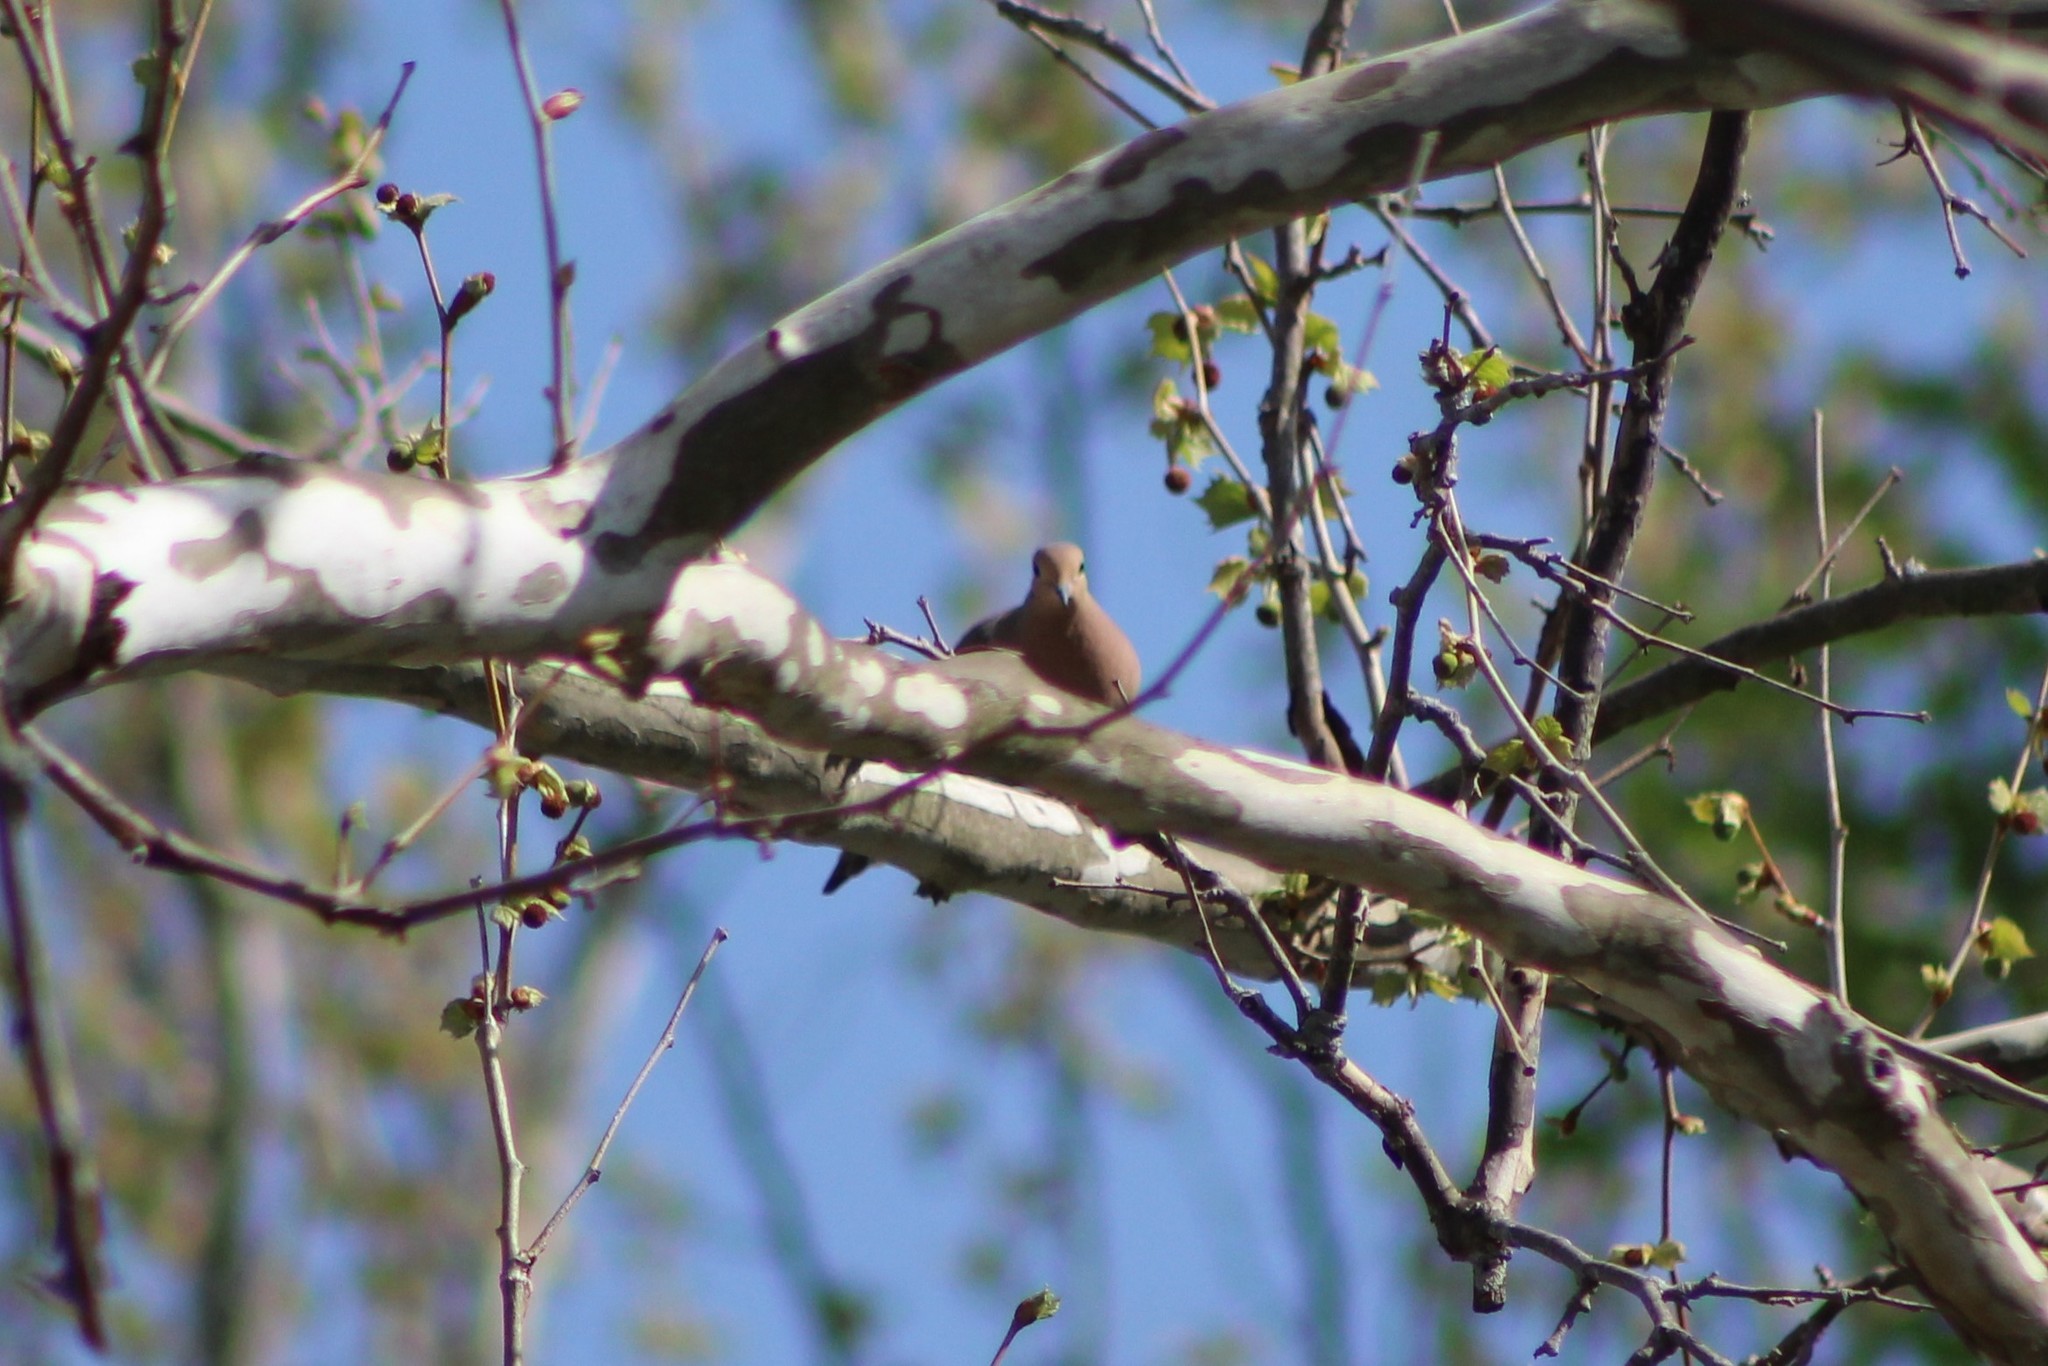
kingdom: Animalia
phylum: Chordata
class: Aves
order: Columbiformes
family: Columbidae
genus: Zenaida
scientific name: Zenaida macroura
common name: Mourning dove
